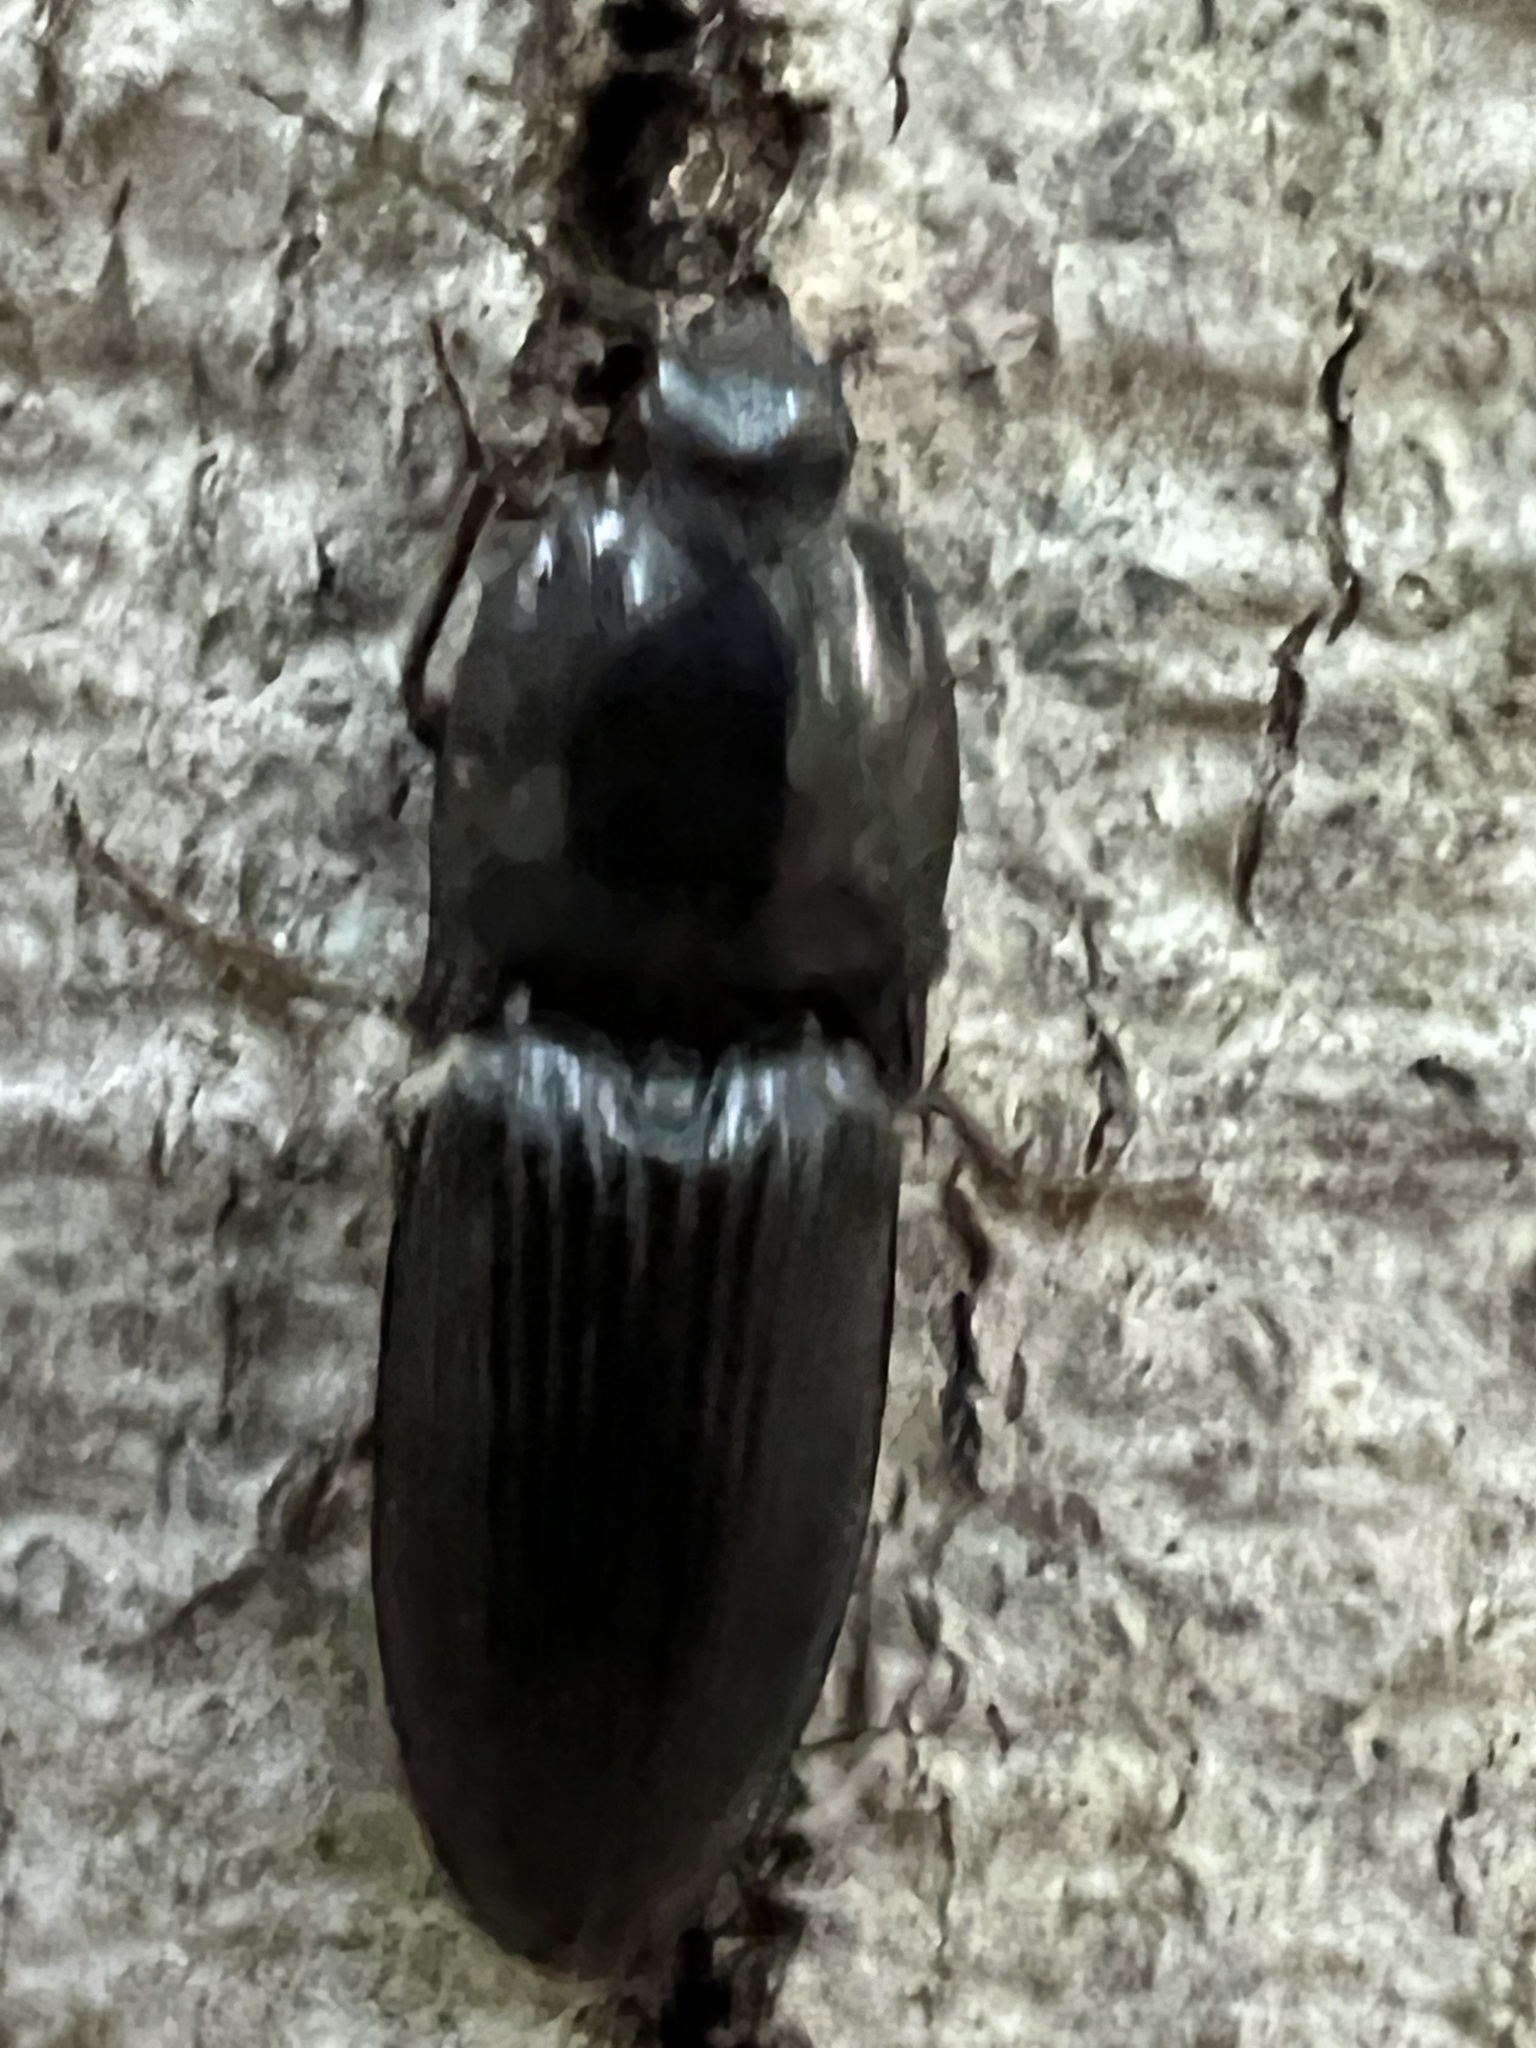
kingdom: Animalia
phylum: Arthropoda
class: Insecta
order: Coleoptera
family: Elateridae
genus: Neopristilophus
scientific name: Neopristilophus
